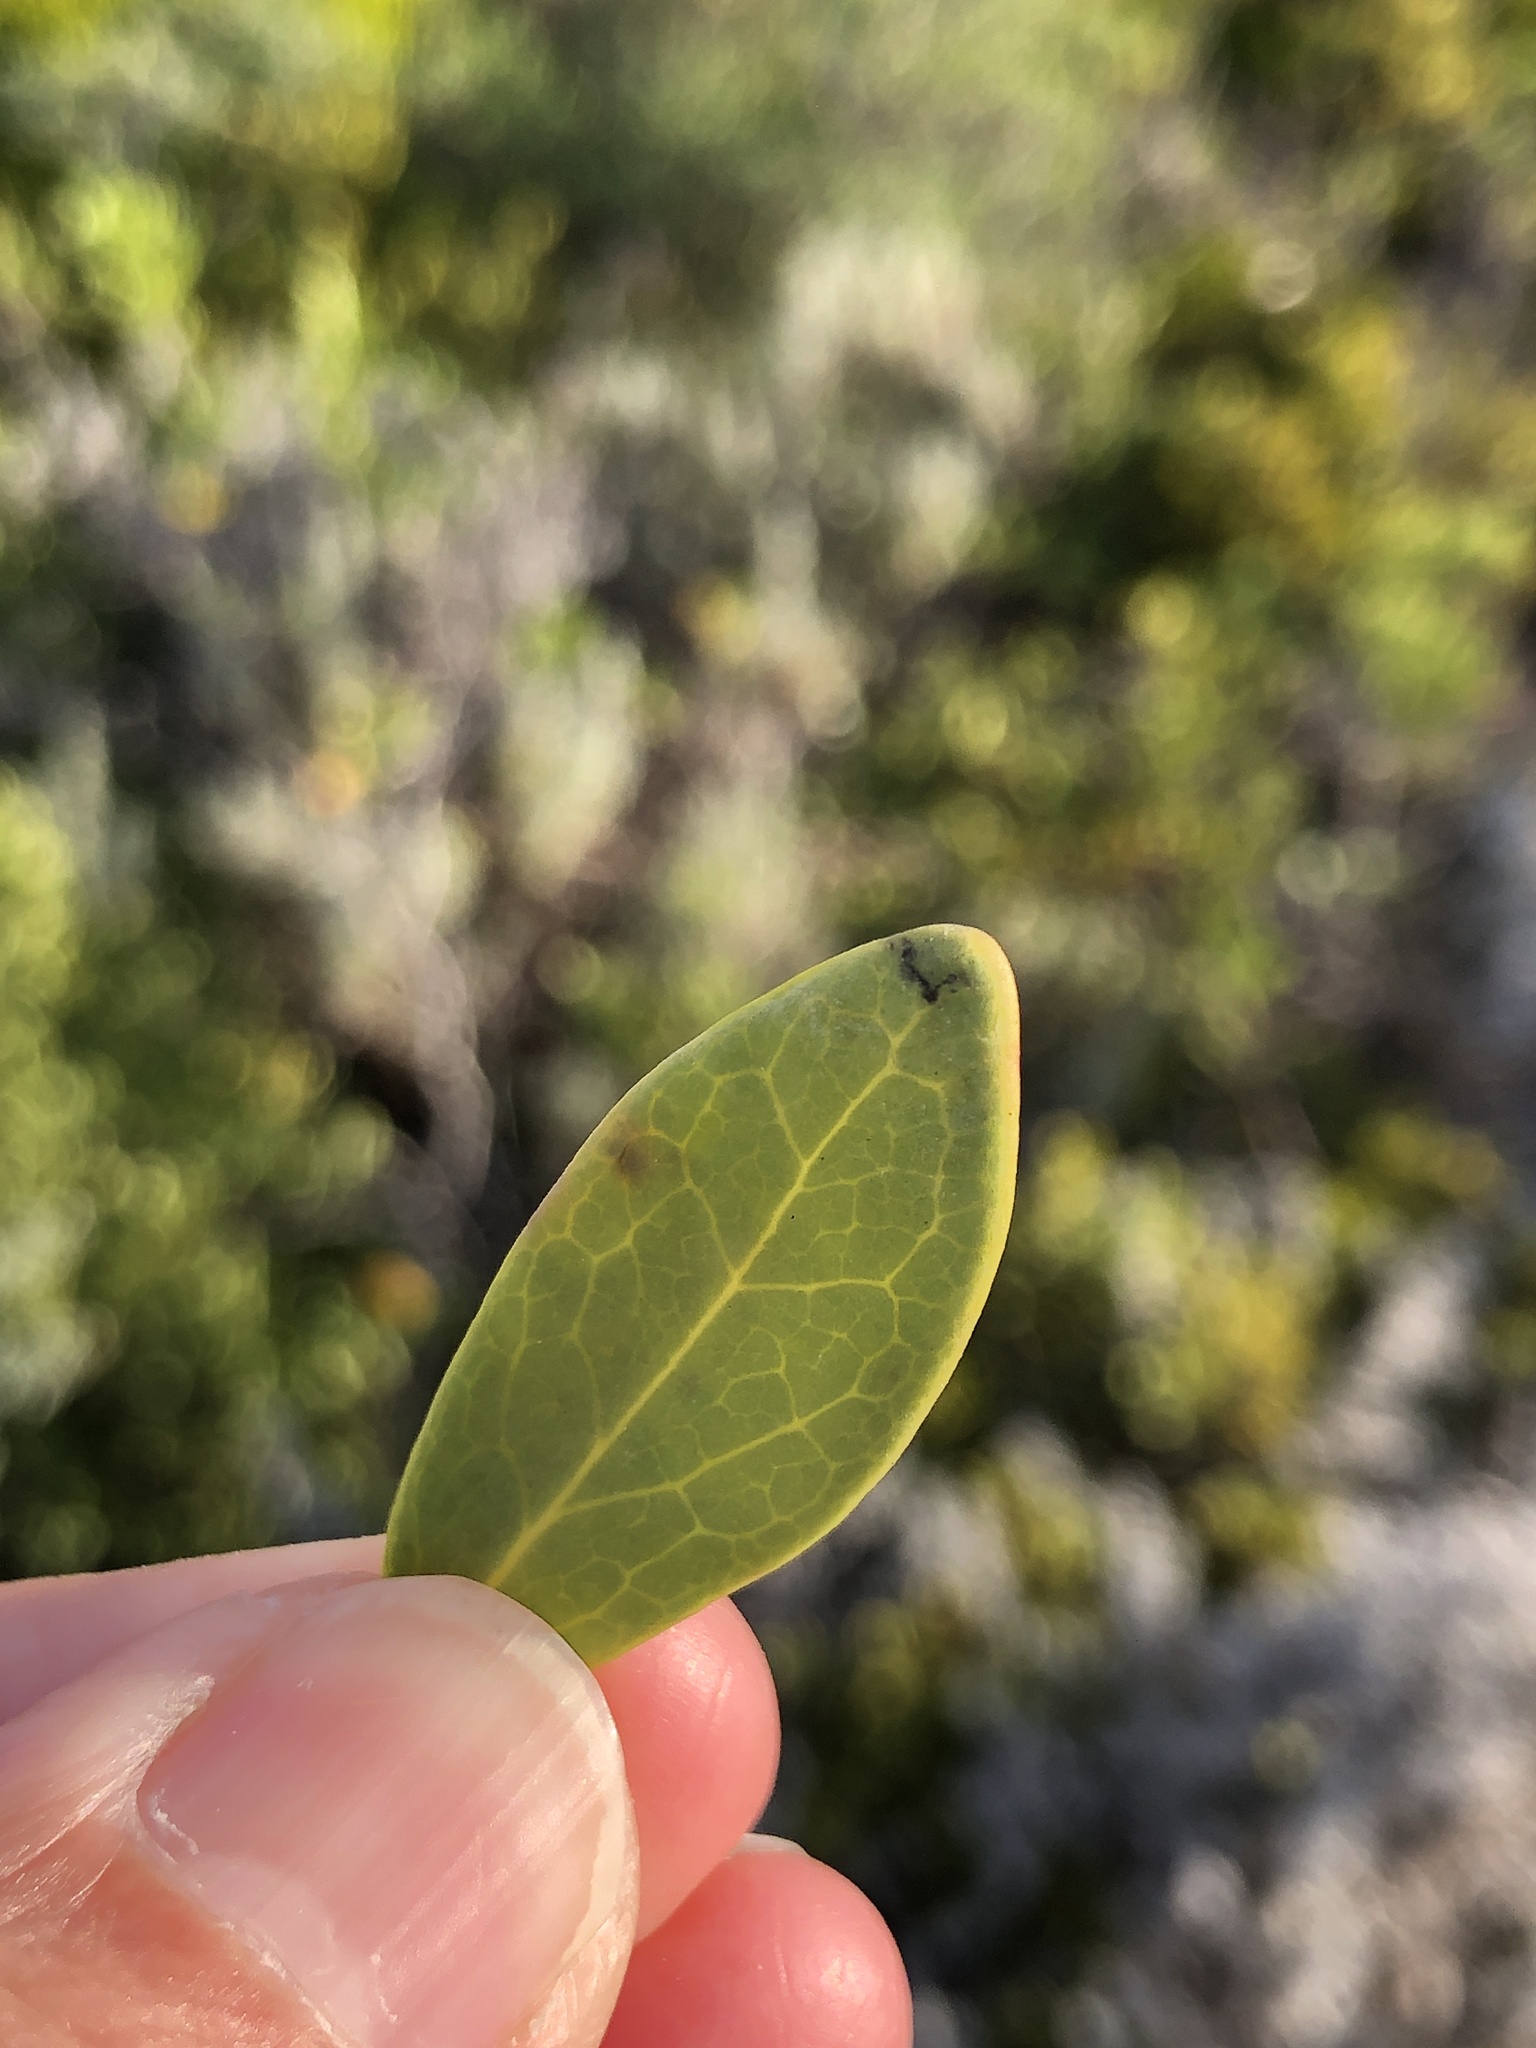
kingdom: Plantae
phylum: Tracheophyta
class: Magnoliopsida
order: Ericales
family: Ebenaceae
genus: Euclea
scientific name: Euclea racemosa
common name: Dune guarri
